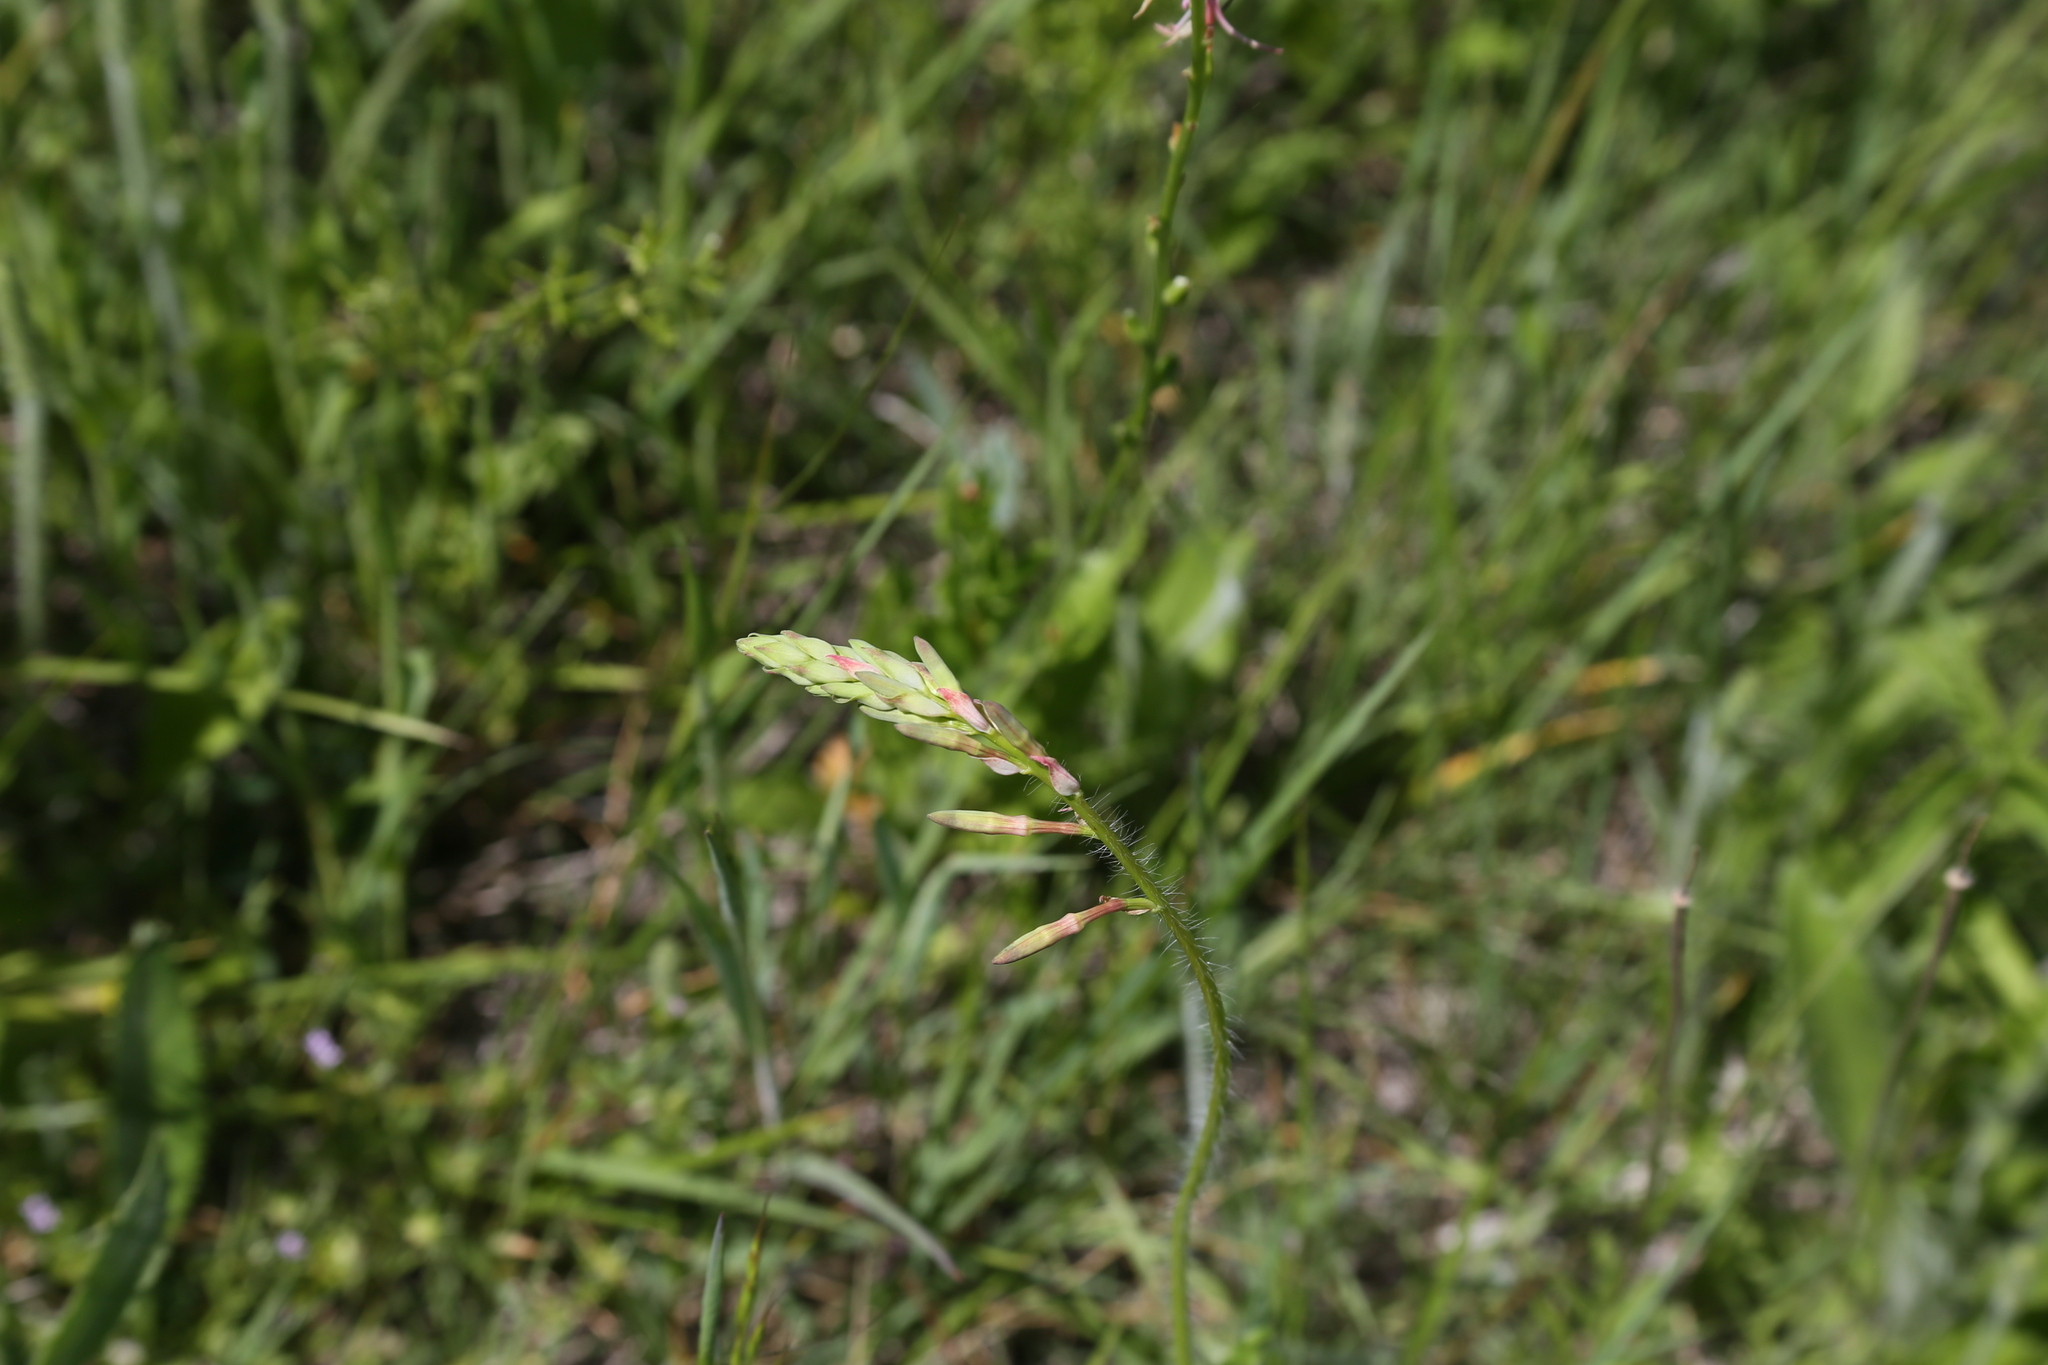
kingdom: Plantae
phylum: Tracheophyta
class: Magnoliopsida
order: Myrtales
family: Onagraceae
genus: Oenothera
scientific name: Oenothera suffulta
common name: Kisses
